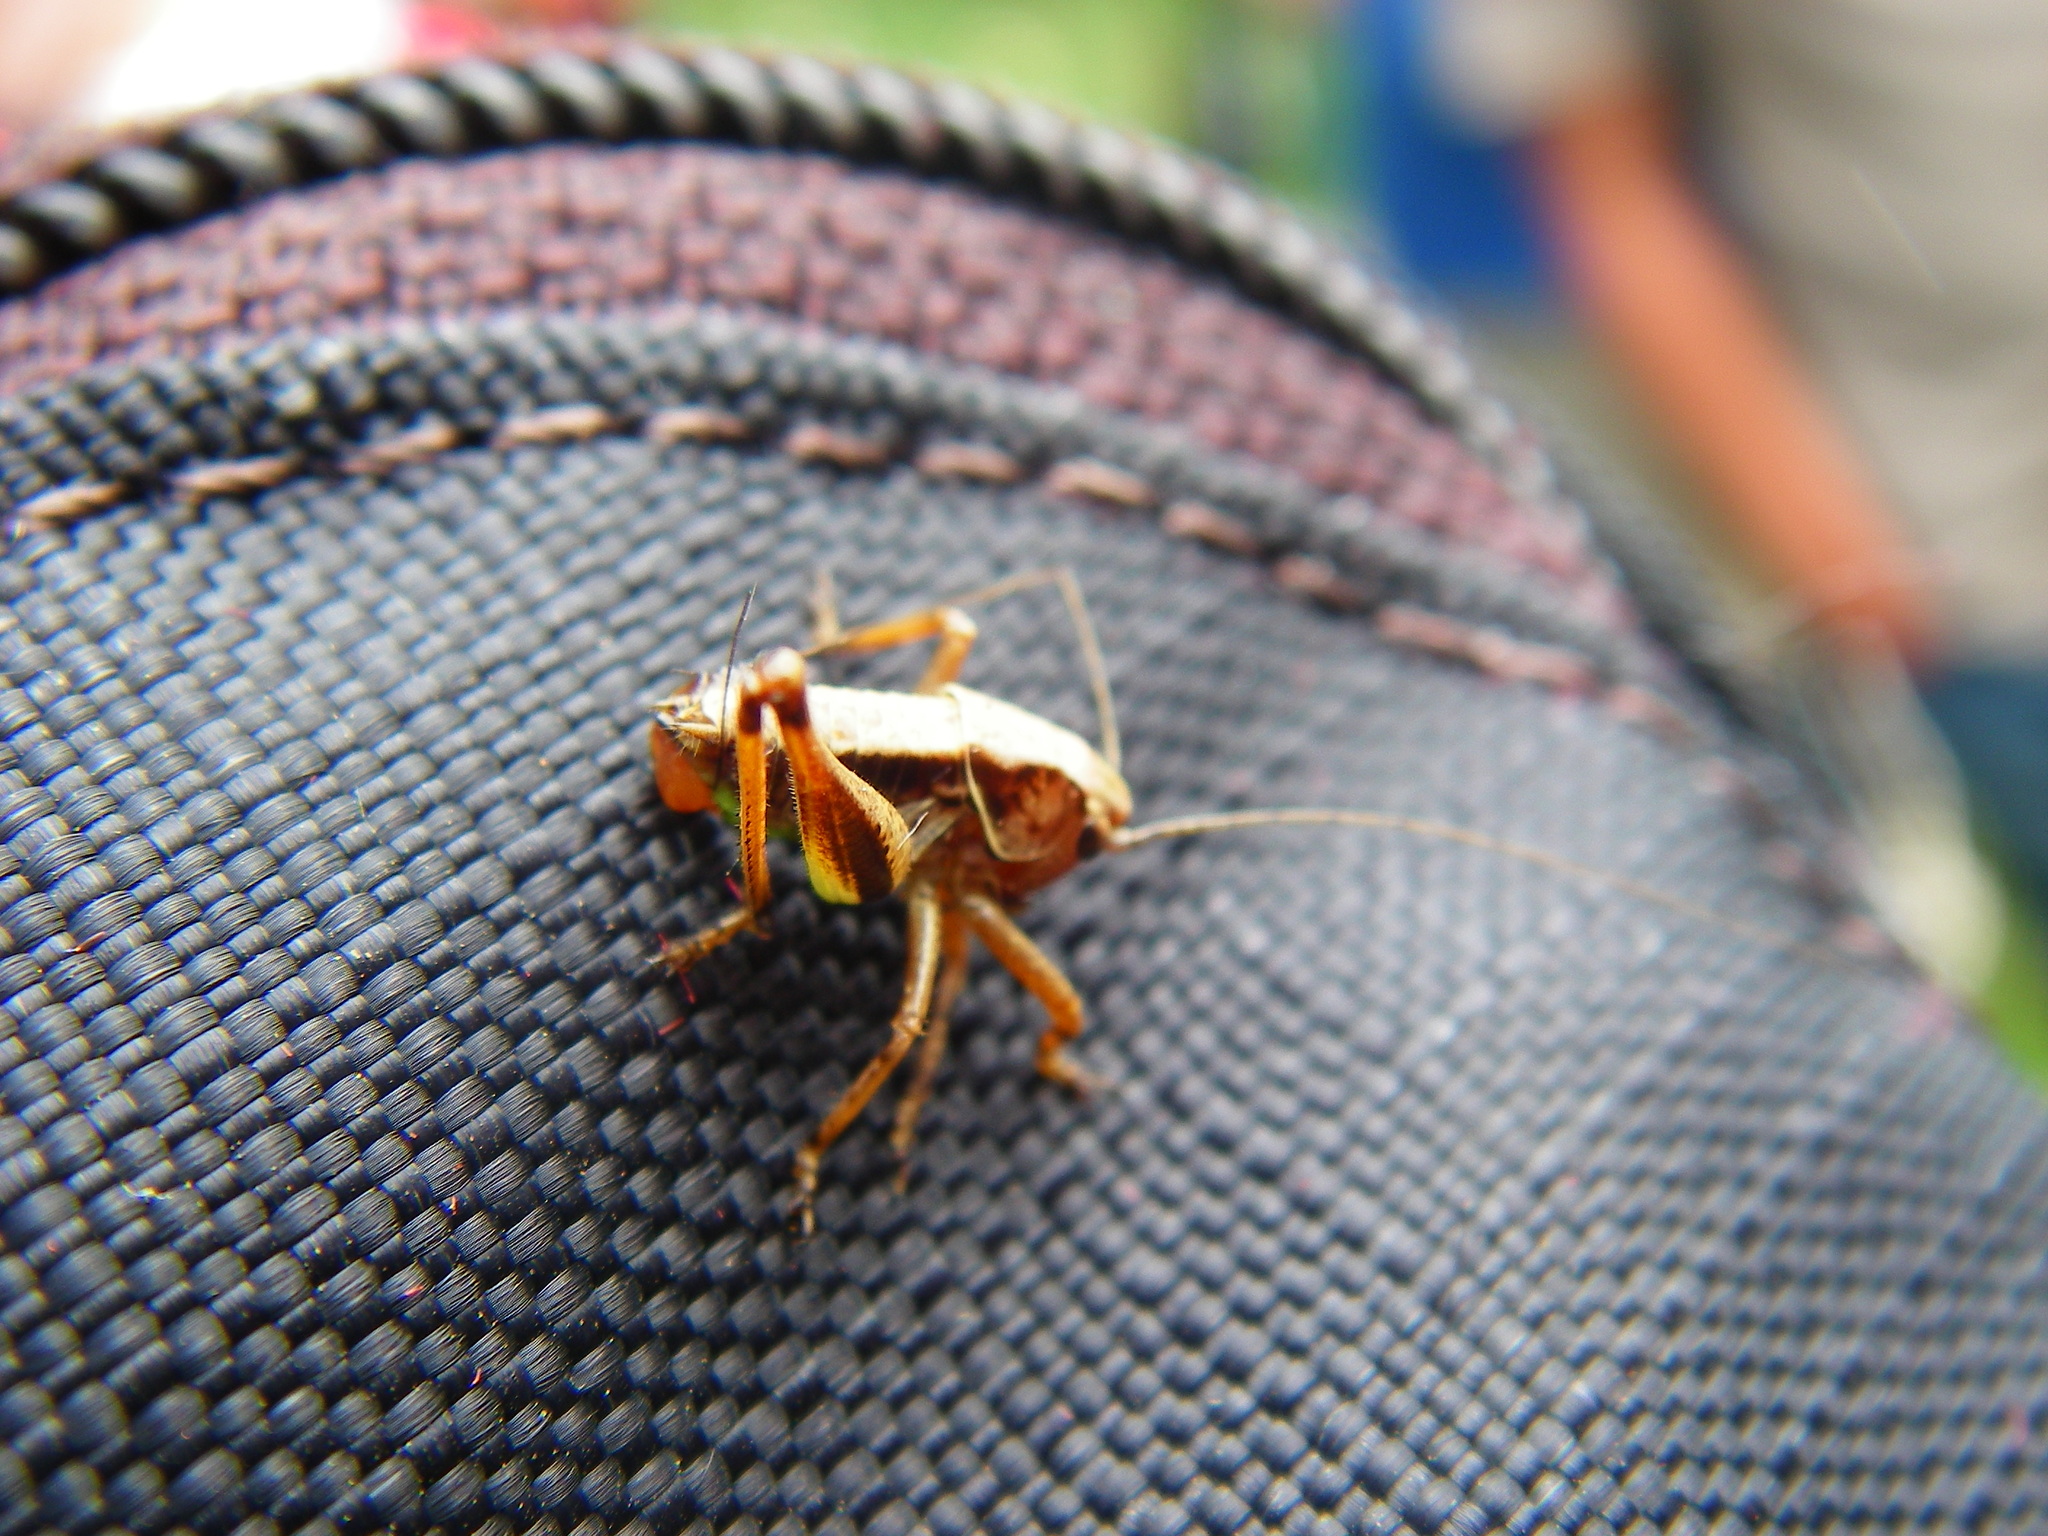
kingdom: Animalia
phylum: Arthropoda
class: Insecta
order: Orthoptera
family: Tettigoniidae
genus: Pholidoptera
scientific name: Pholidoptera griseoaptera
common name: Dark bush-cricket
